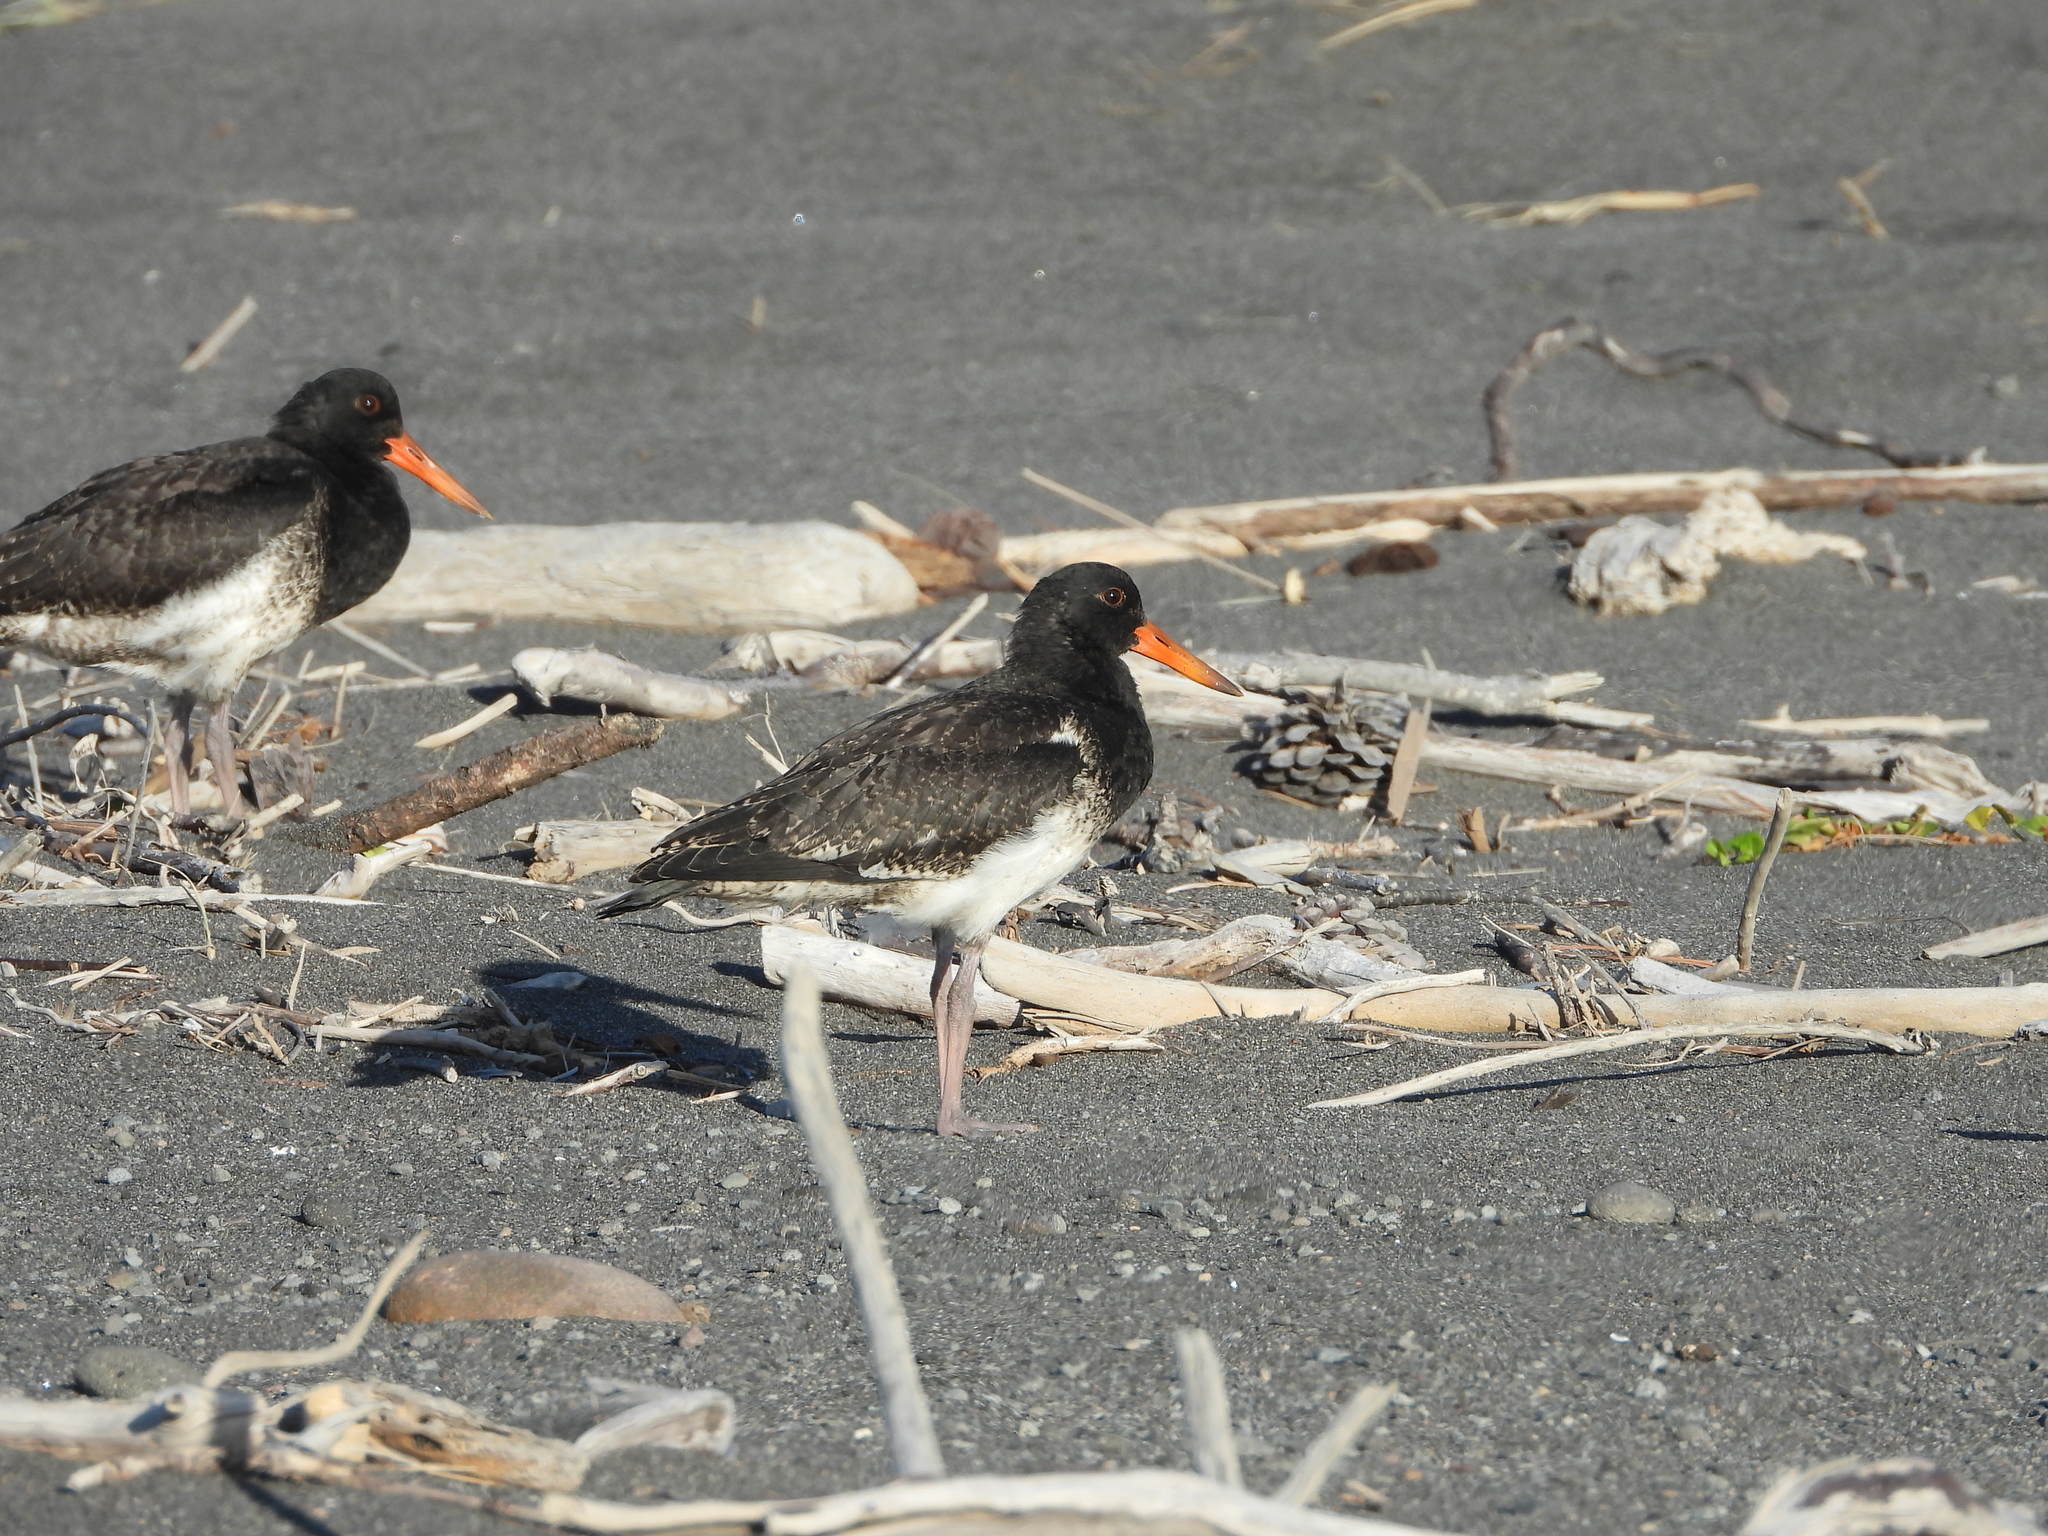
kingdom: Animalia
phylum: Chordata
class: Aves
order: Charadriiformes
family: Haematopodidae
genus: Haematopus
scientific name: Haematopus unicolor
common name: Variable oystercatcher
